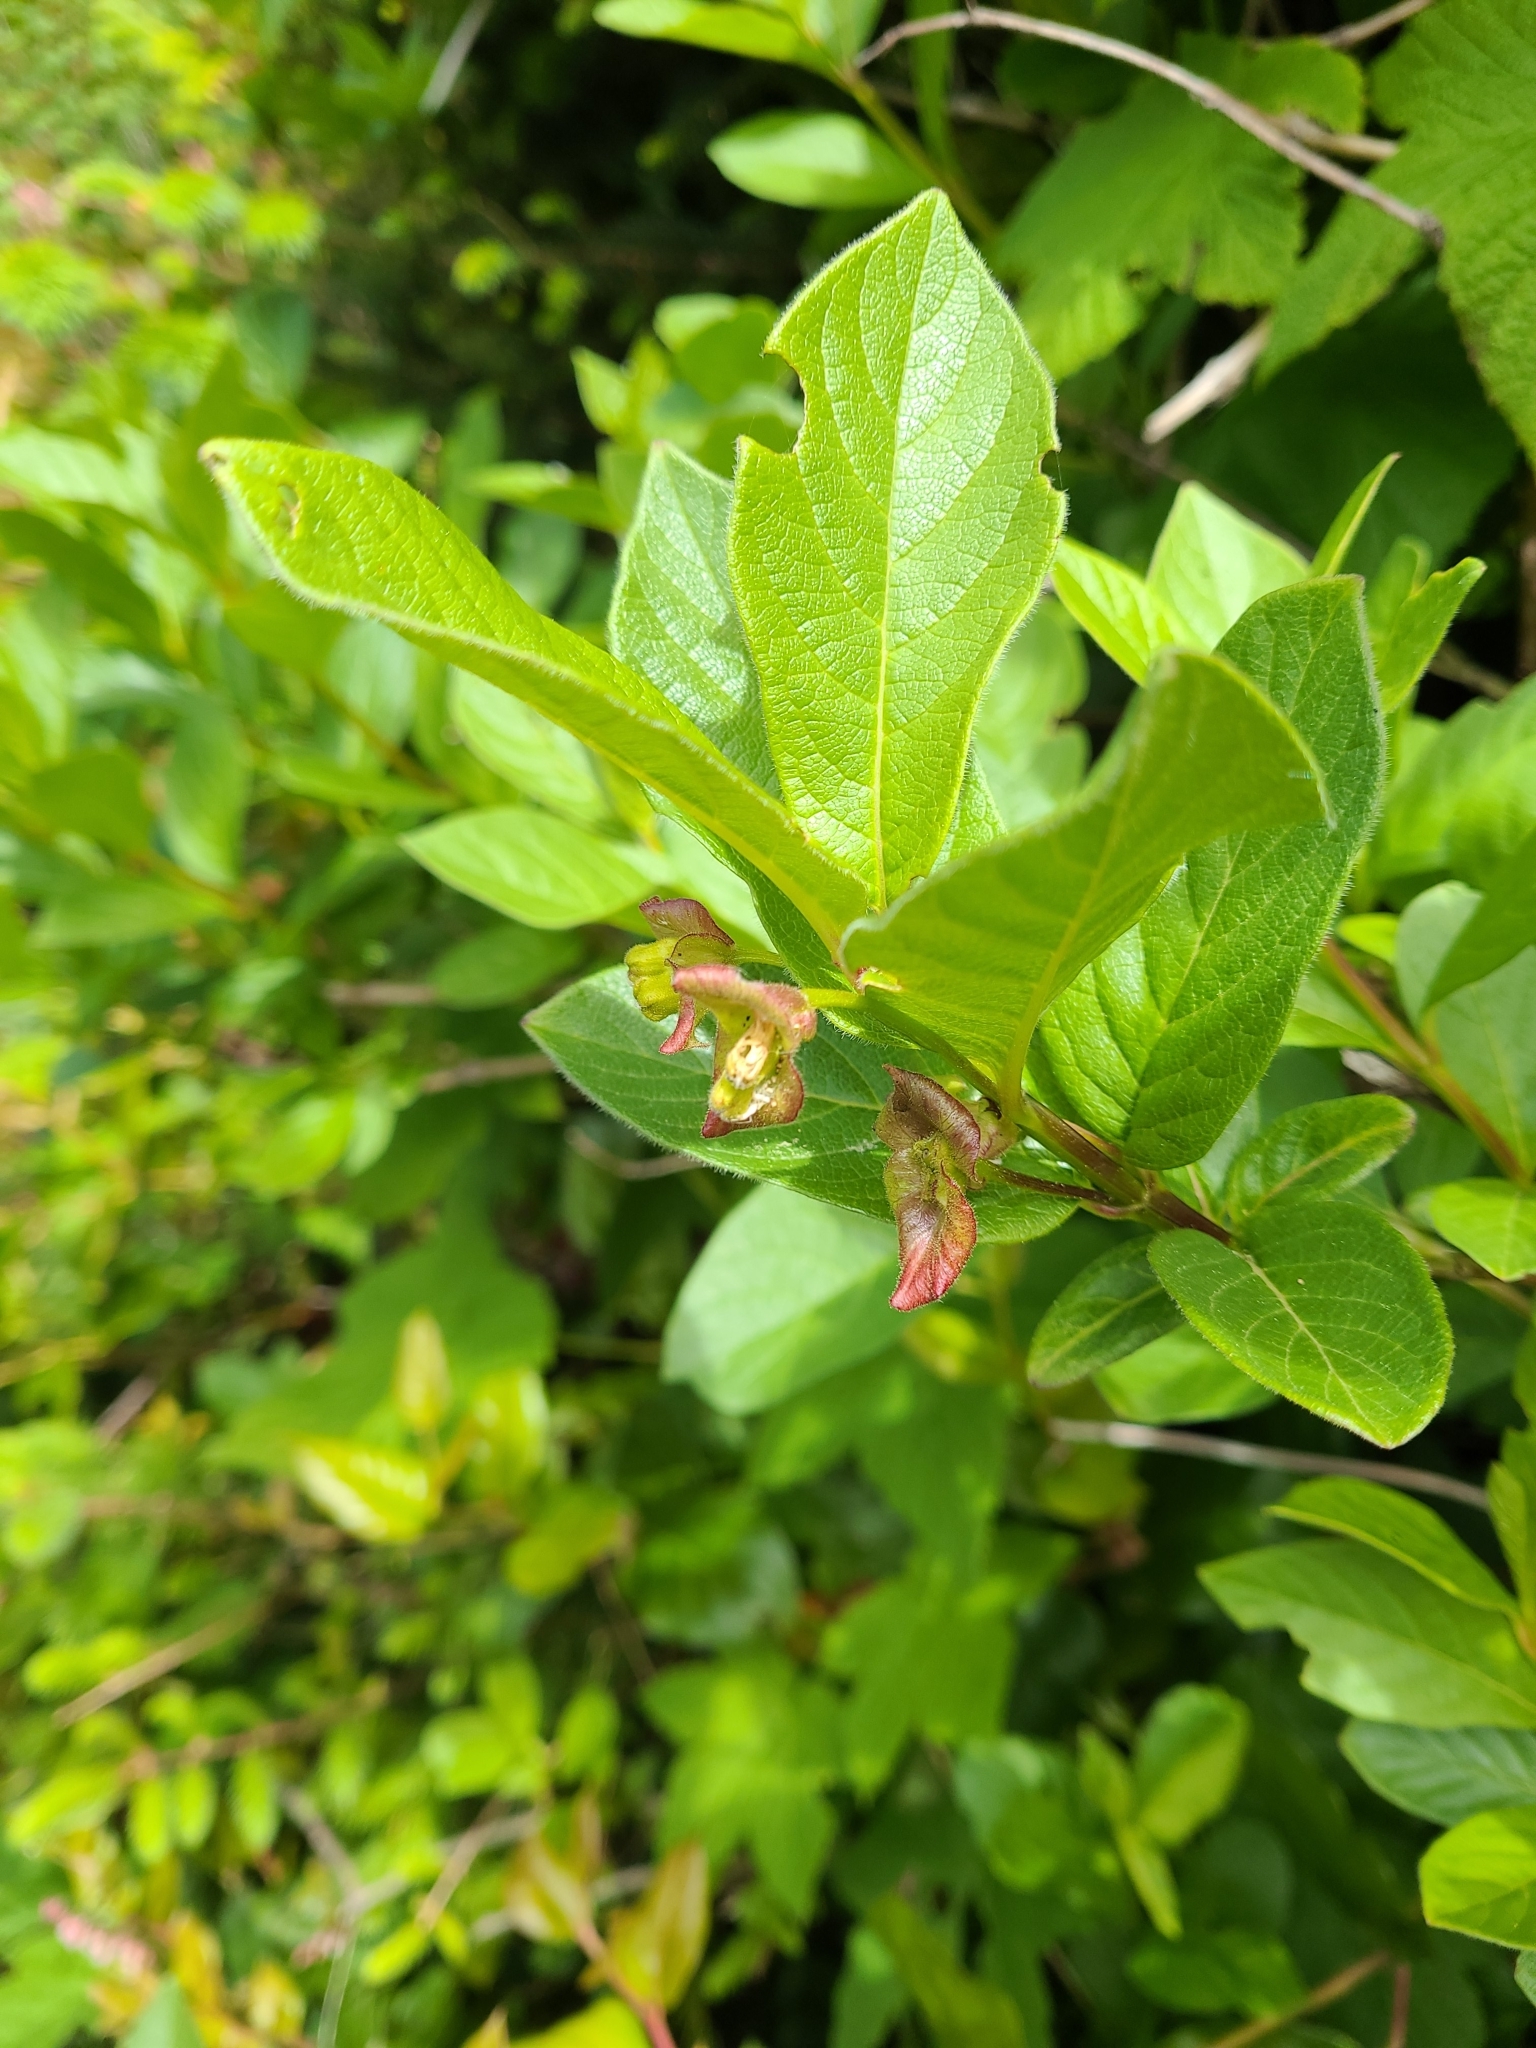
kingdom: Plantae
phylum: Tracheophyta
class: Magnoliopsida
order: Dipsacales
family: Caprifoliaceae
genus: Lonicera
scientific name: Lonicera involucrata
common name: Californian honeysuckle
